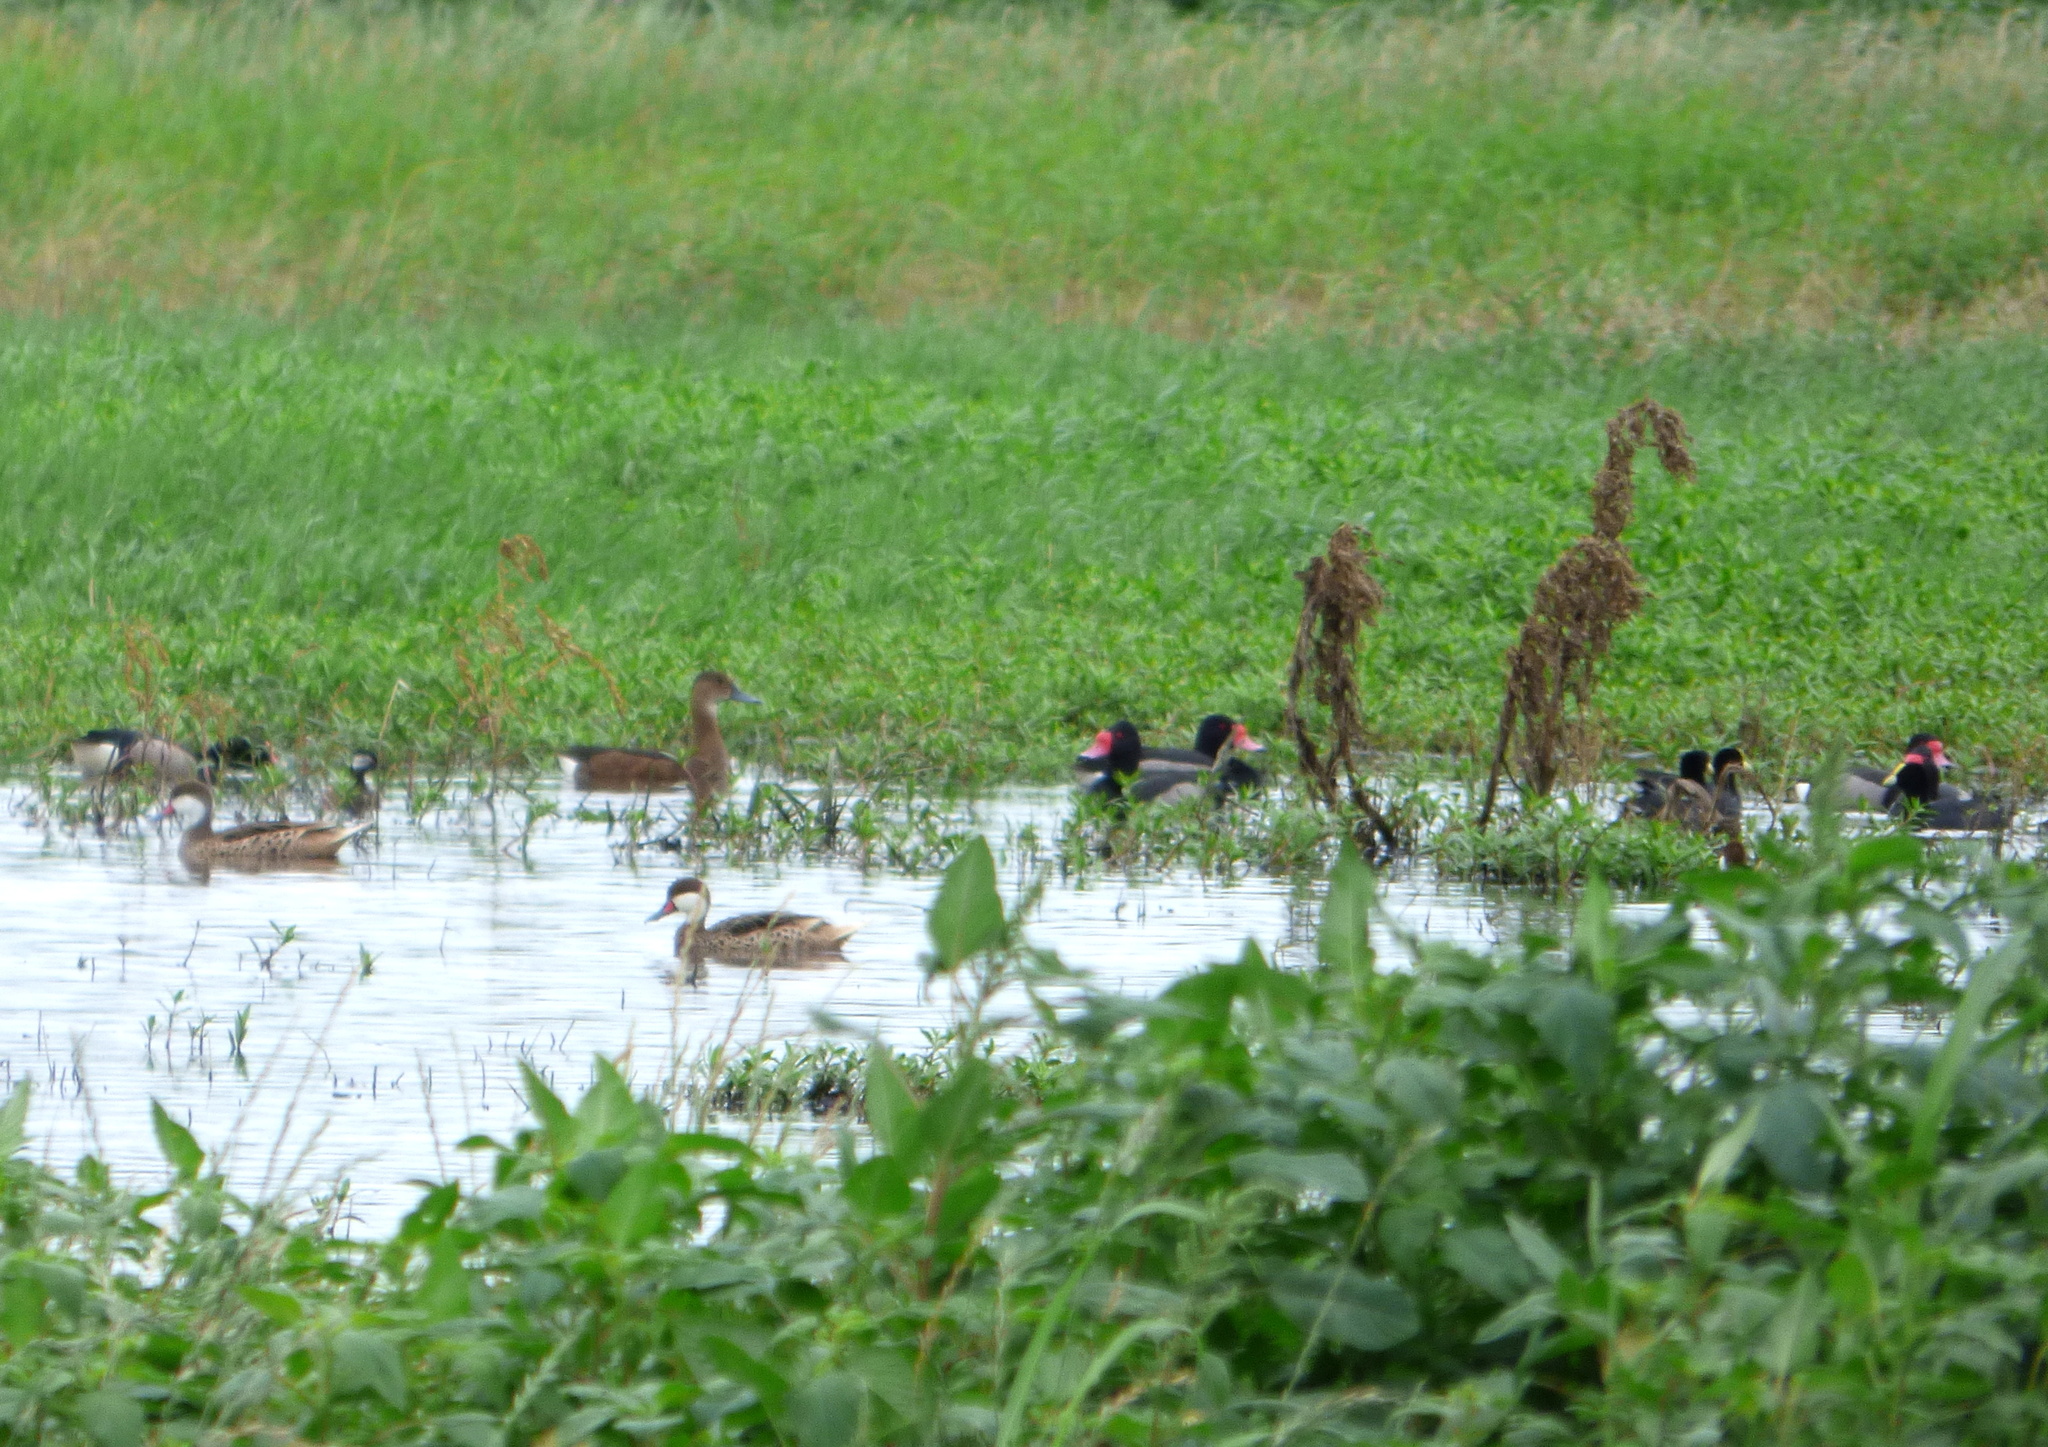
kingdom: Animalia
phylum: Chordata
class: Aves
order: Anseriformes
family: Anatidae
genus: Netta
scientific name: Netta peposaca
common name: Rosy-billed pochard
